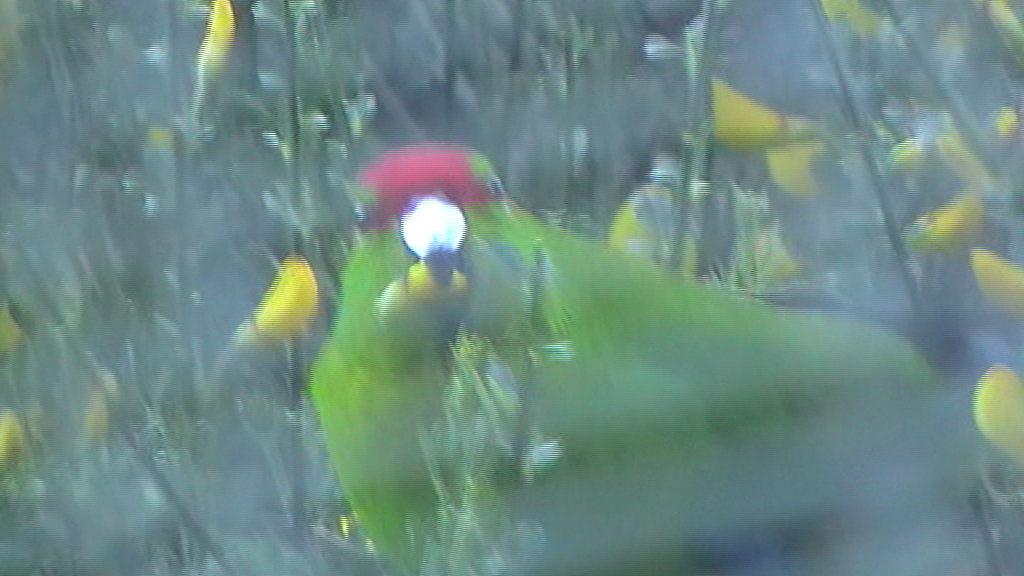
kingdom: Plantae
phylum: Tracheophyta
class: Magnoliopsida
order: Fabales
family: Fabaceae
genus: Cytisus
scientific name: Cytisus scoparius
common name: Scotch broom
